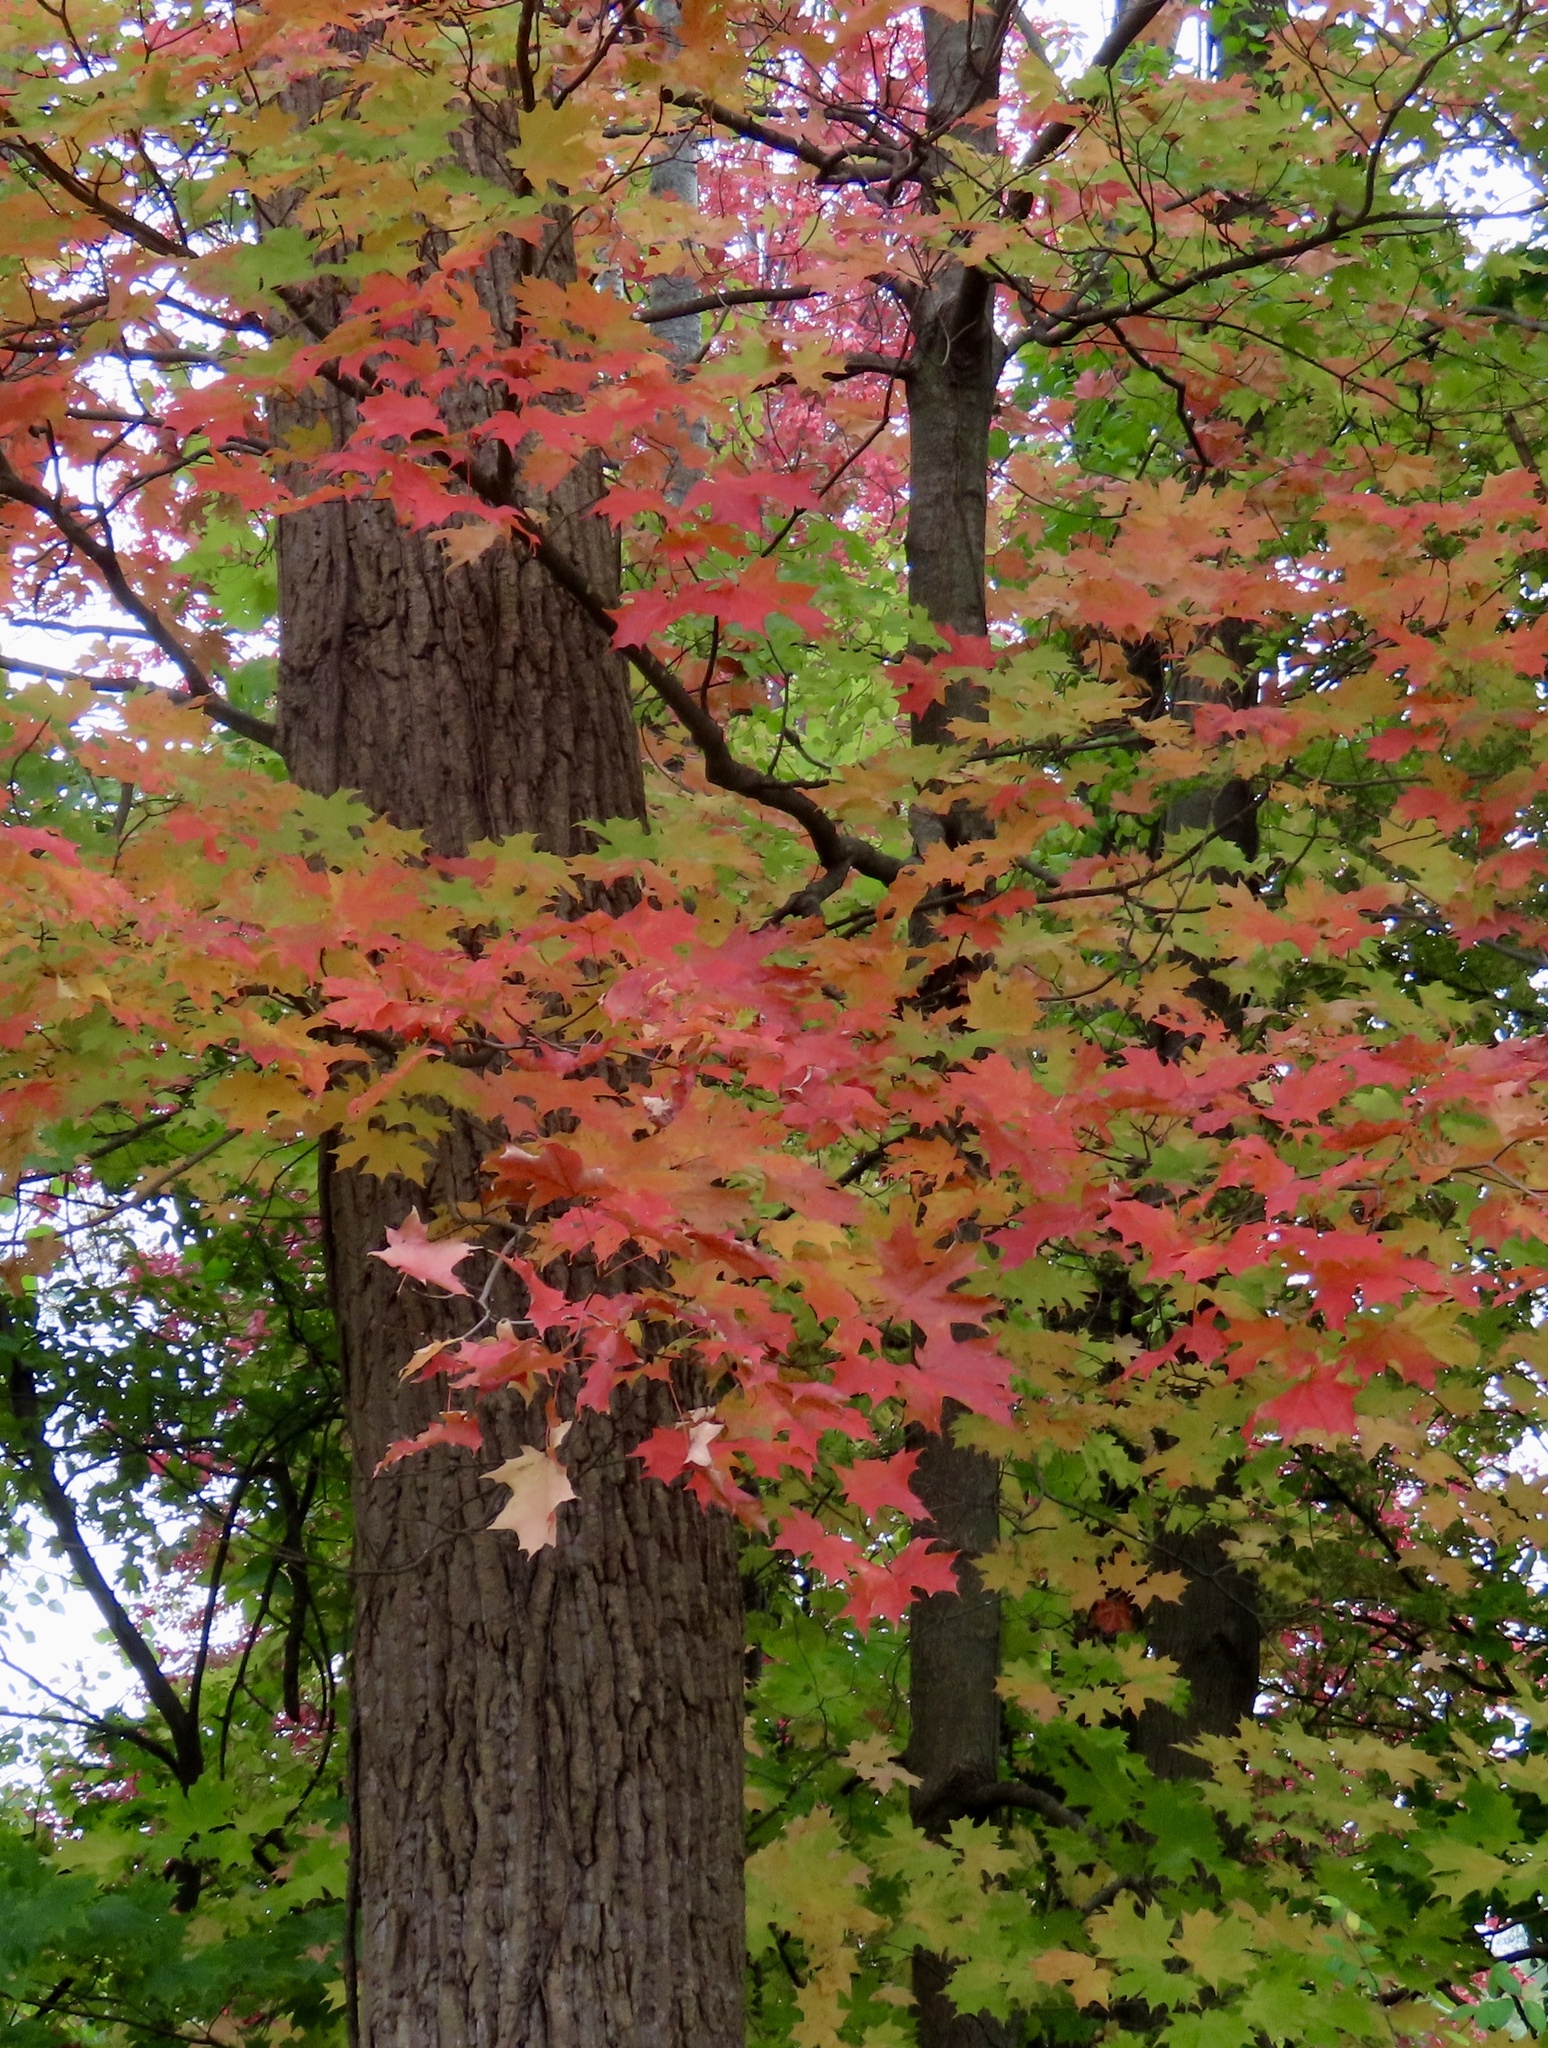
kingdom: Plantae
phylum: Tracheophyta
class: Magnoliopsida
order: Sapindales
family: Sapindaceae
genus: Acer
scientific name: Acer saccharum
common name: Sugar maple
